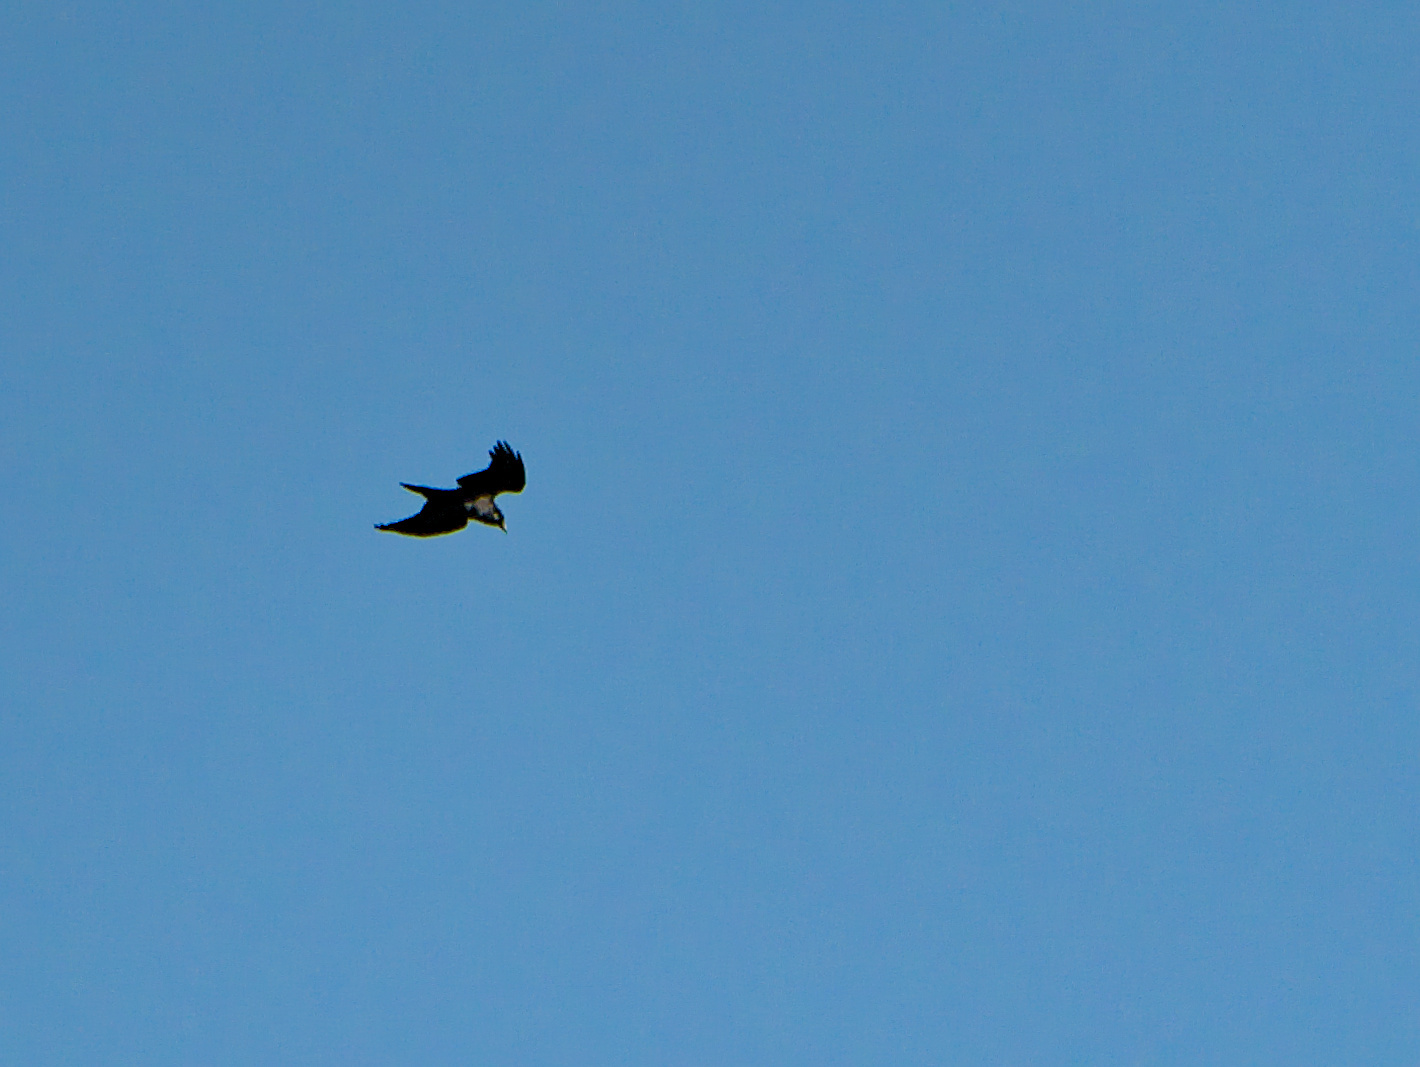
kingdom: Animalia
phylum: Chordata
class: Aves
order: Passeriformes
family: Corvidae
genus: Corvus
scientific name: Corvus corax
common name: Common raven
